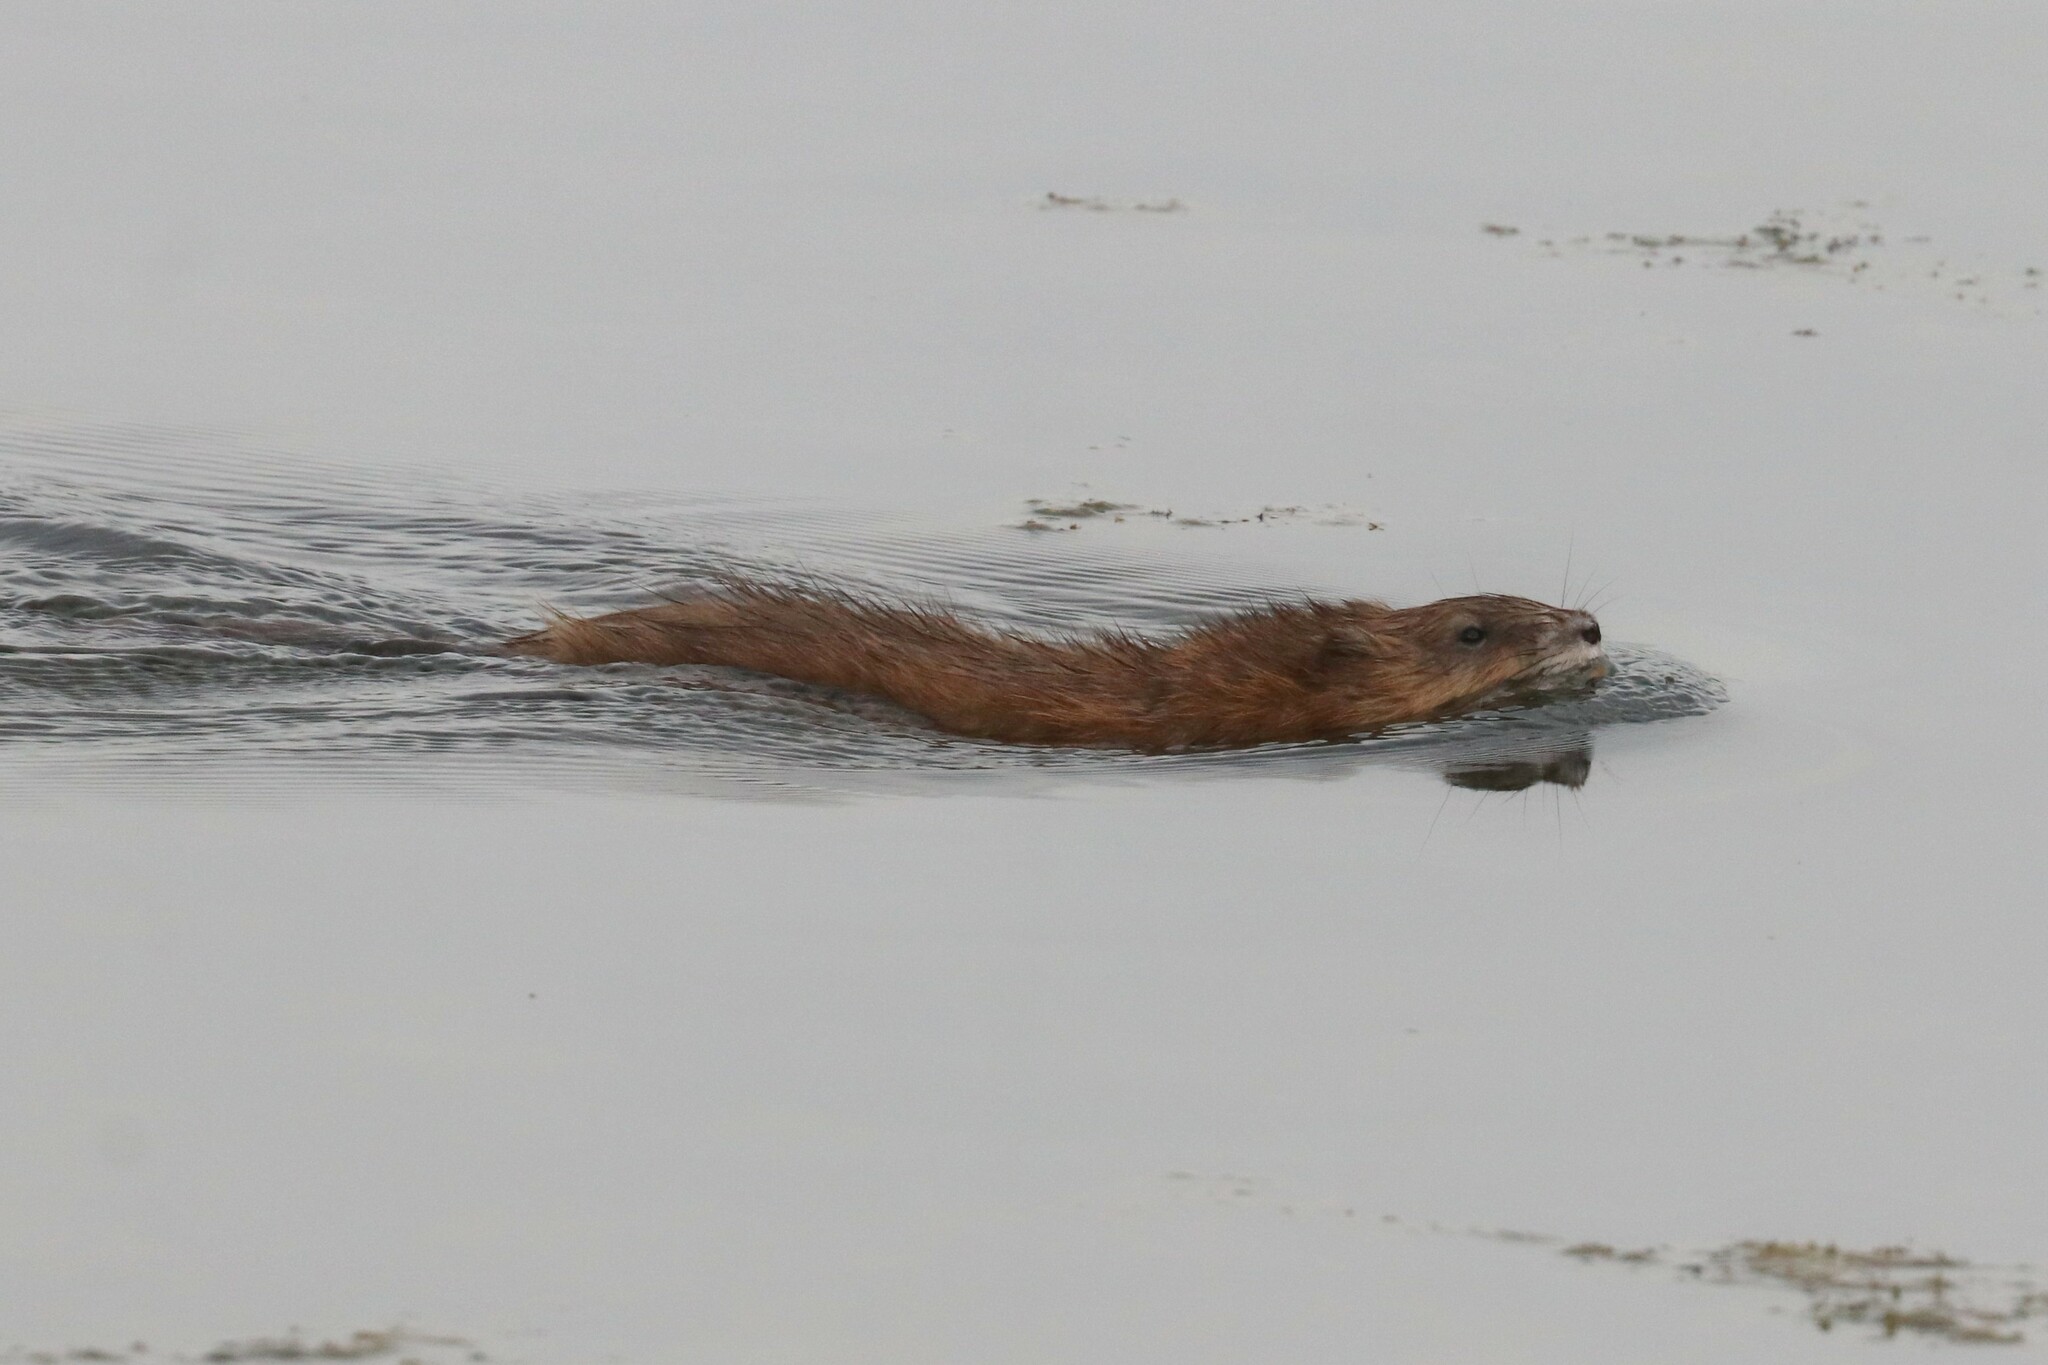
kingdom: Animalia
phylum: Chordata
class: Mammalia
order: Rodentia
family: Cricetidae
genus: Ondatra
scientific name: Ondatra zibethicus
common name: Muskrat
